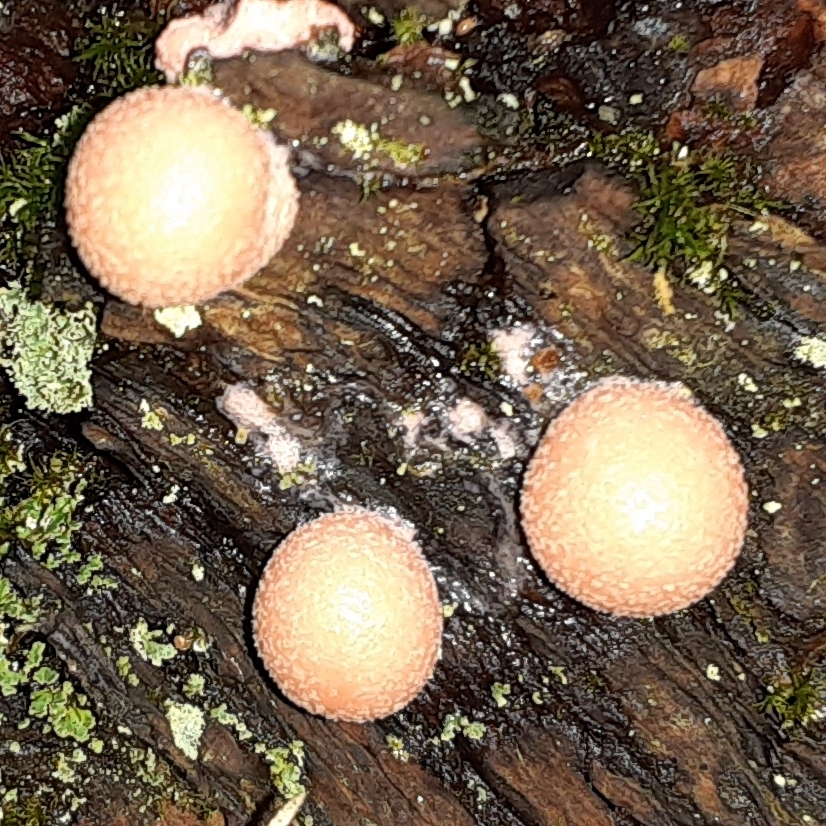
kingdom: Protozoa
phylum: Mycetozoa
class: Myxomycetes
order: Cribrariales
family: Tubiferaceae
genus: Lycogala
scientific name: Lycogala epidendrum
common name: Wolf's milk
